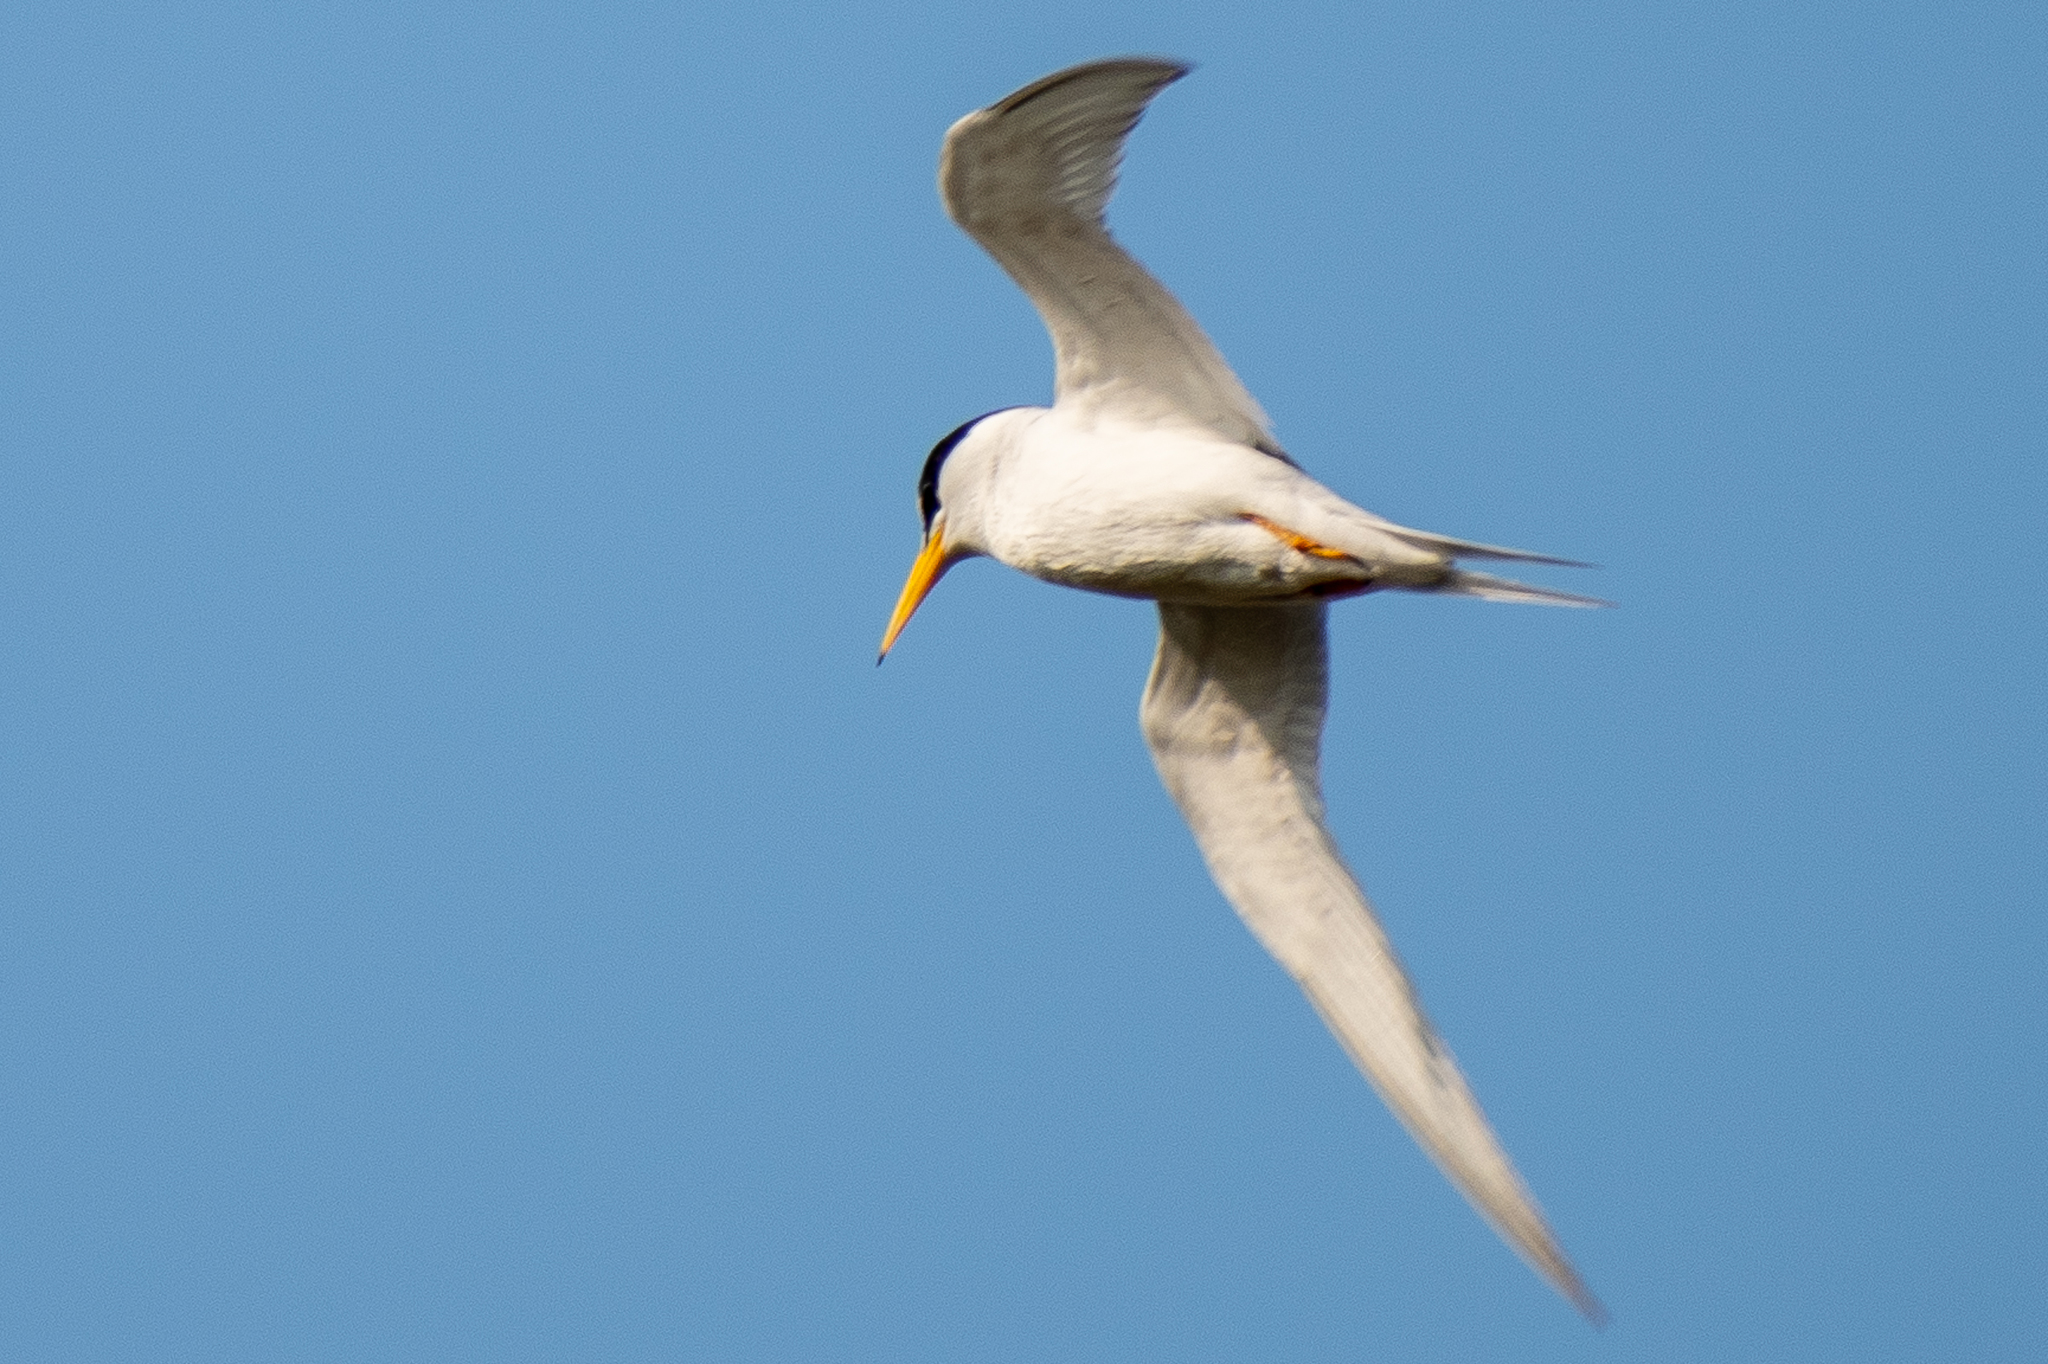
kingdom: Animalia
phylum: Chordata
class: Aves
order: Charadriiformes
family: Laridae
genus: Sternula
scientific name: Sternula antillarum
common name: Least tern
